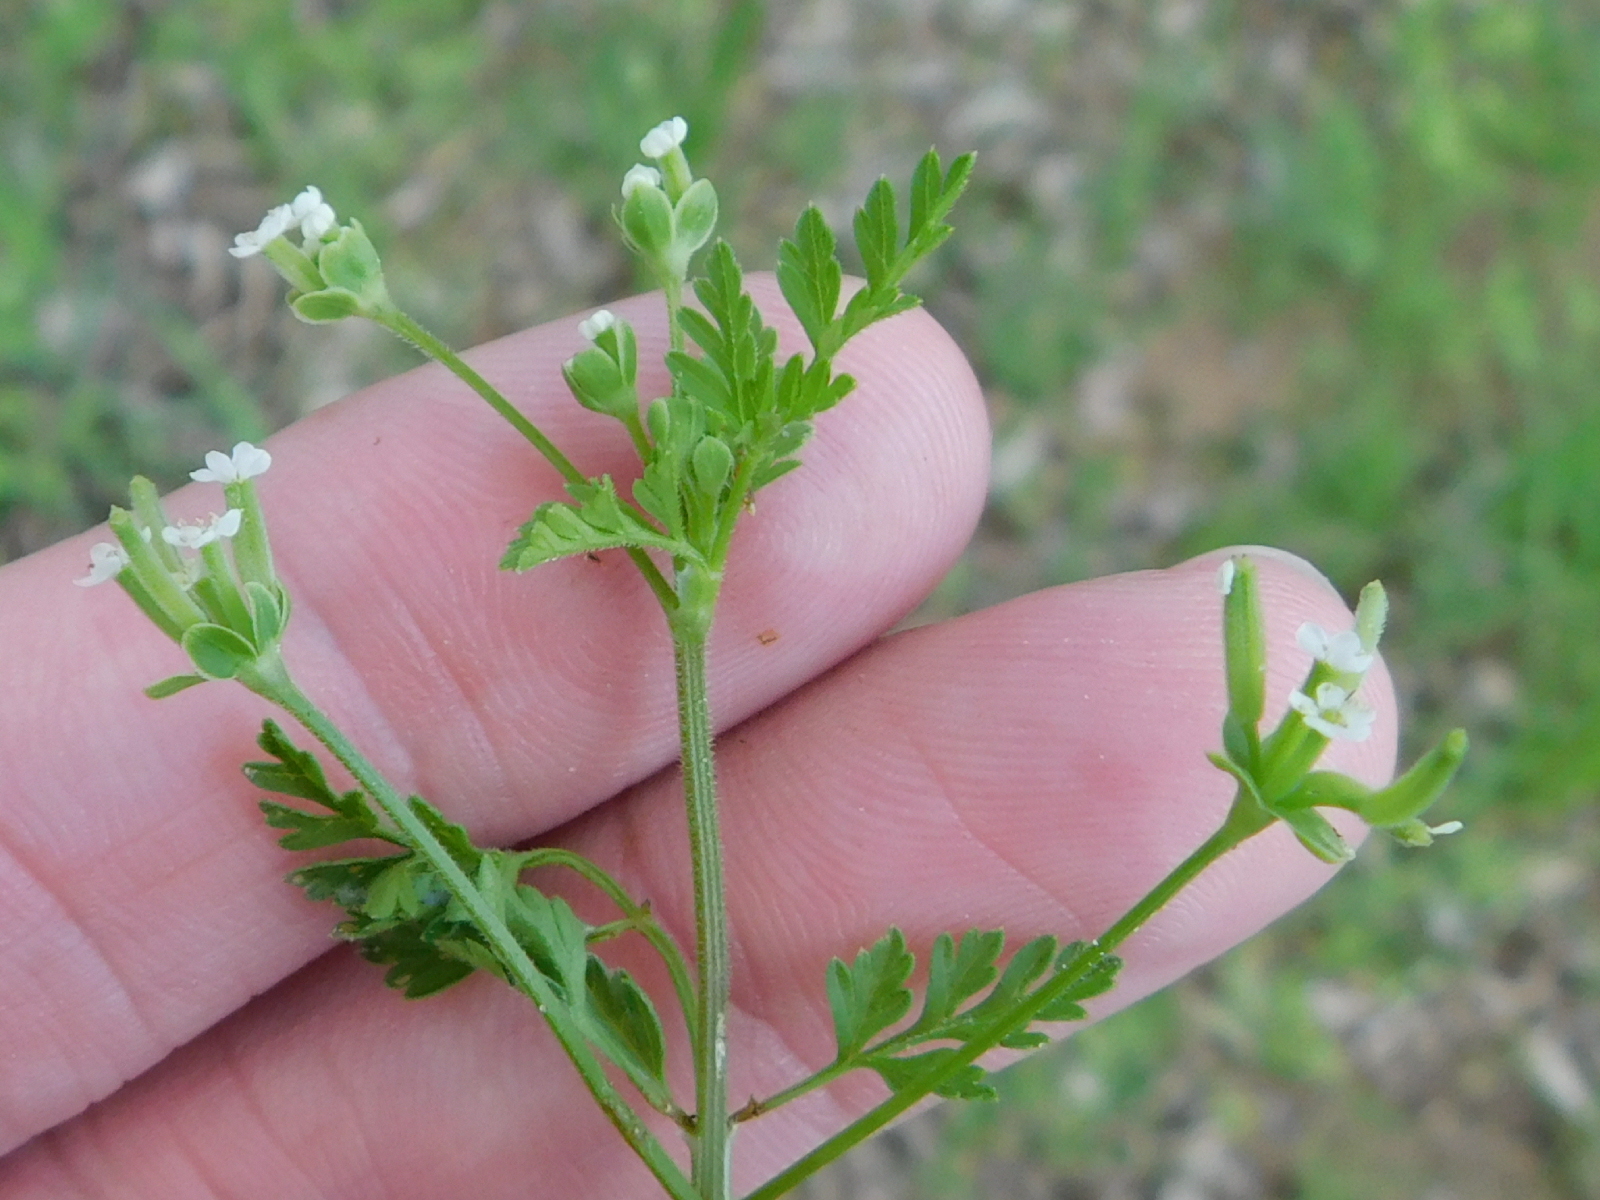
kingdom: Plantae
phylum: Tracheophyta
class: Magnoliopsida
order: Apiales
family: Apiaceae
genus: Chaerophyllum
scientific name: Chaerophyllum tainturieri
